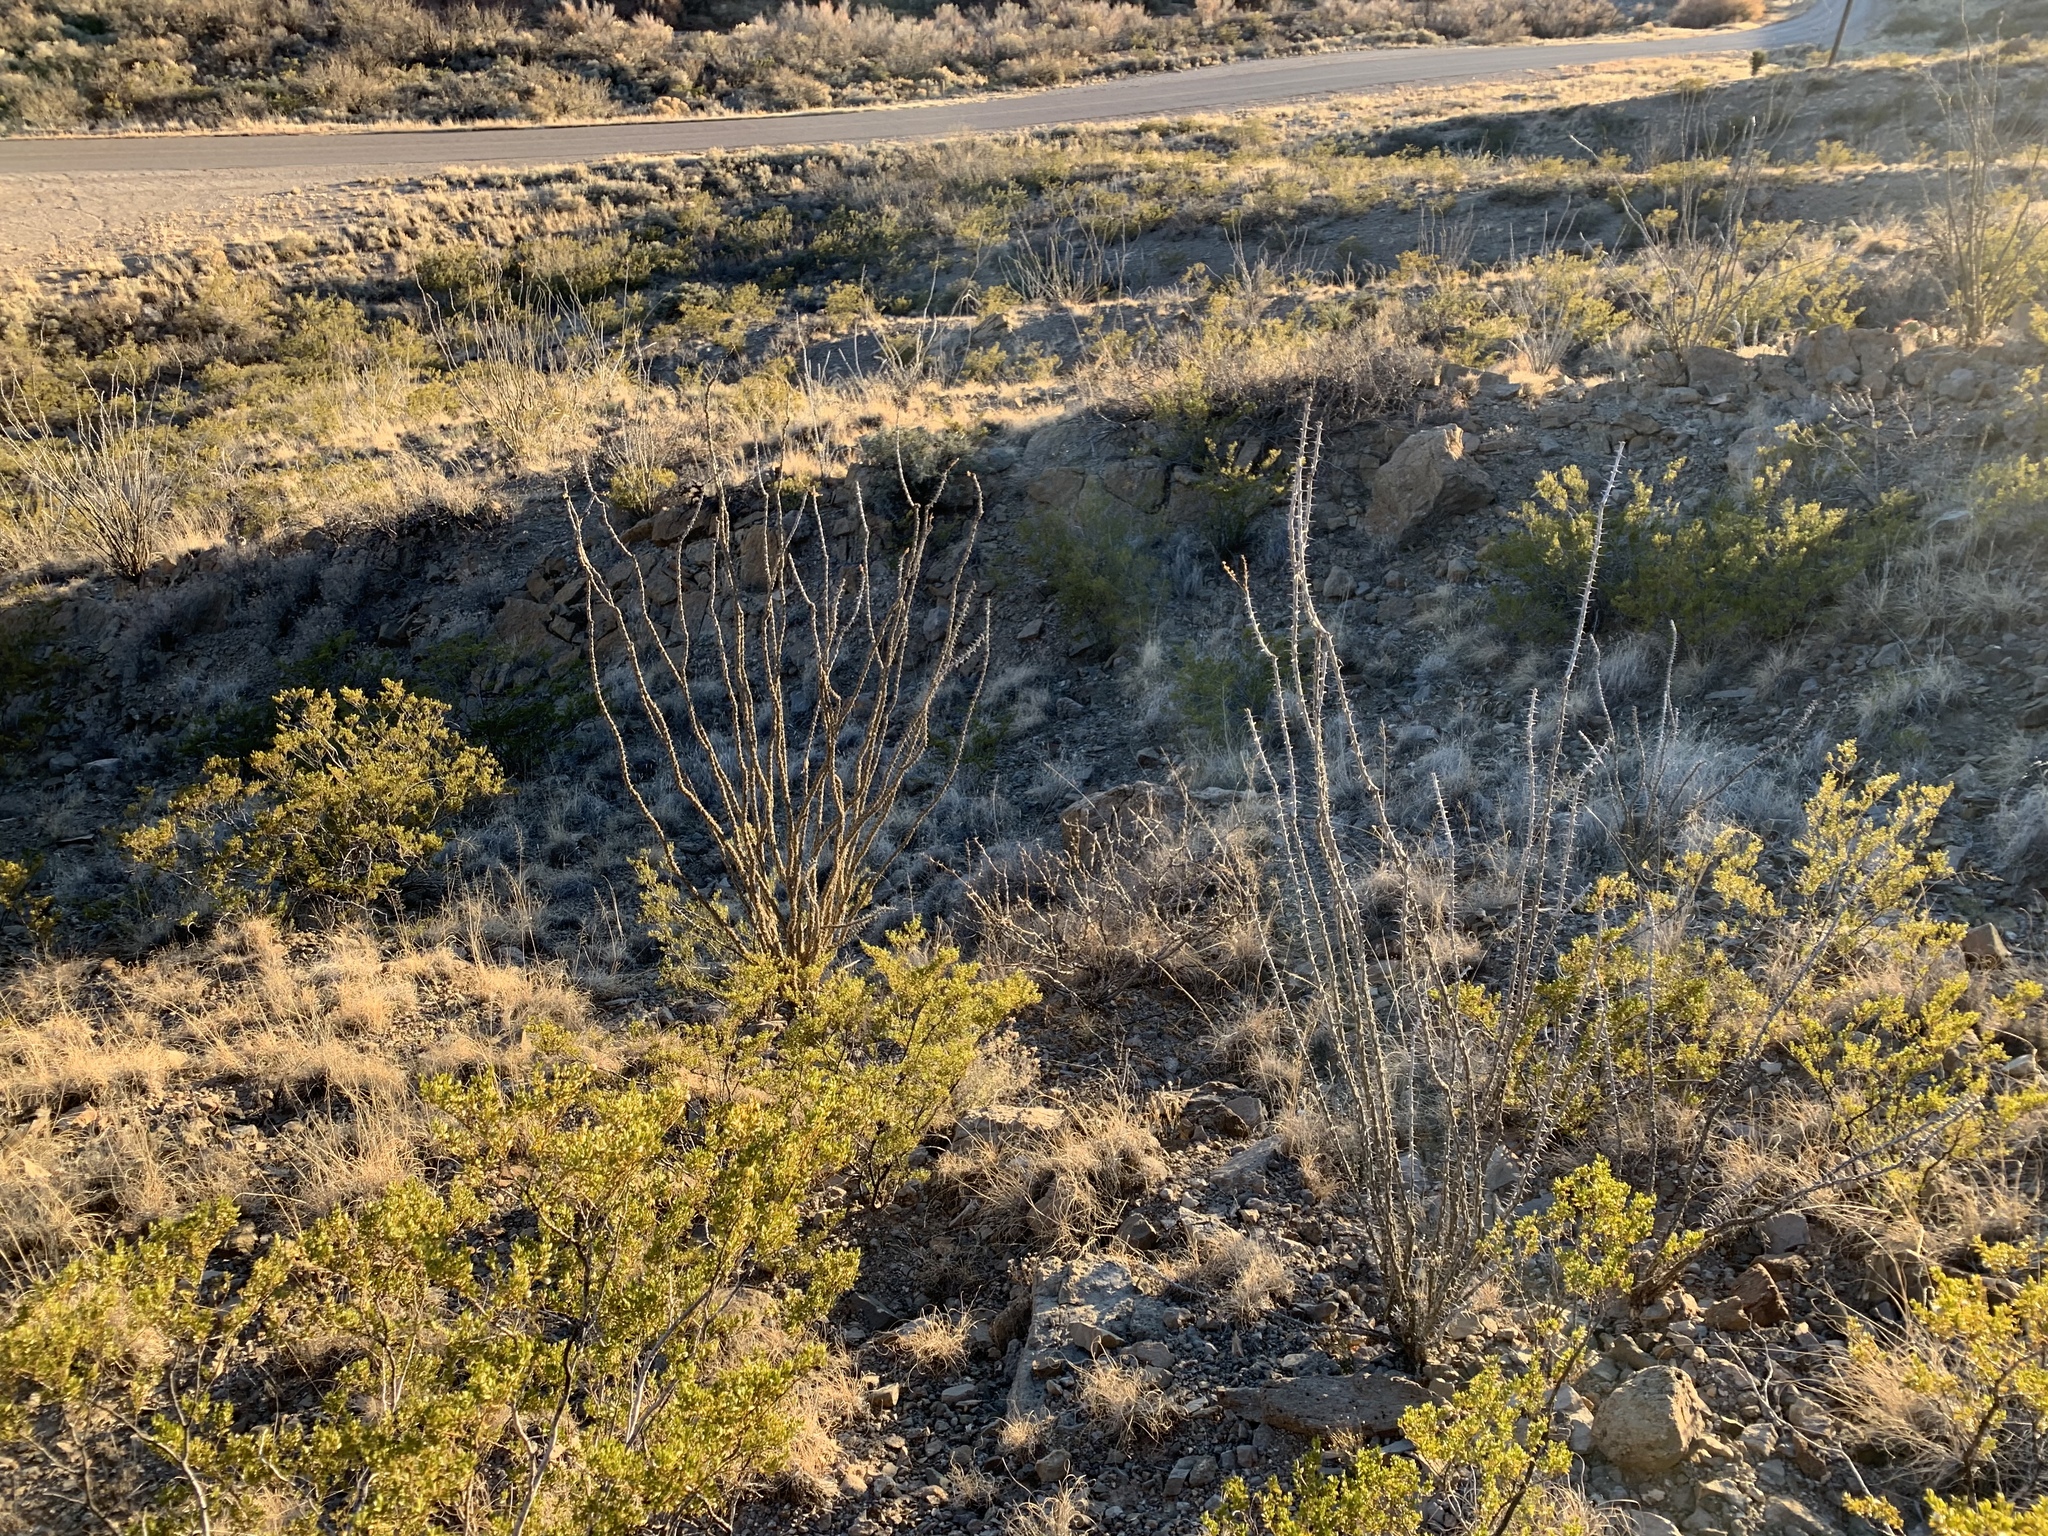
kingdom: Plantae
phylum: Tracheophyta
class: Magnoliopsida
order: Ericales
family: Fouquieriaceae
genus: Fouquieria
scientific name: Fouquieria splendens
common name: Vine-cactus
